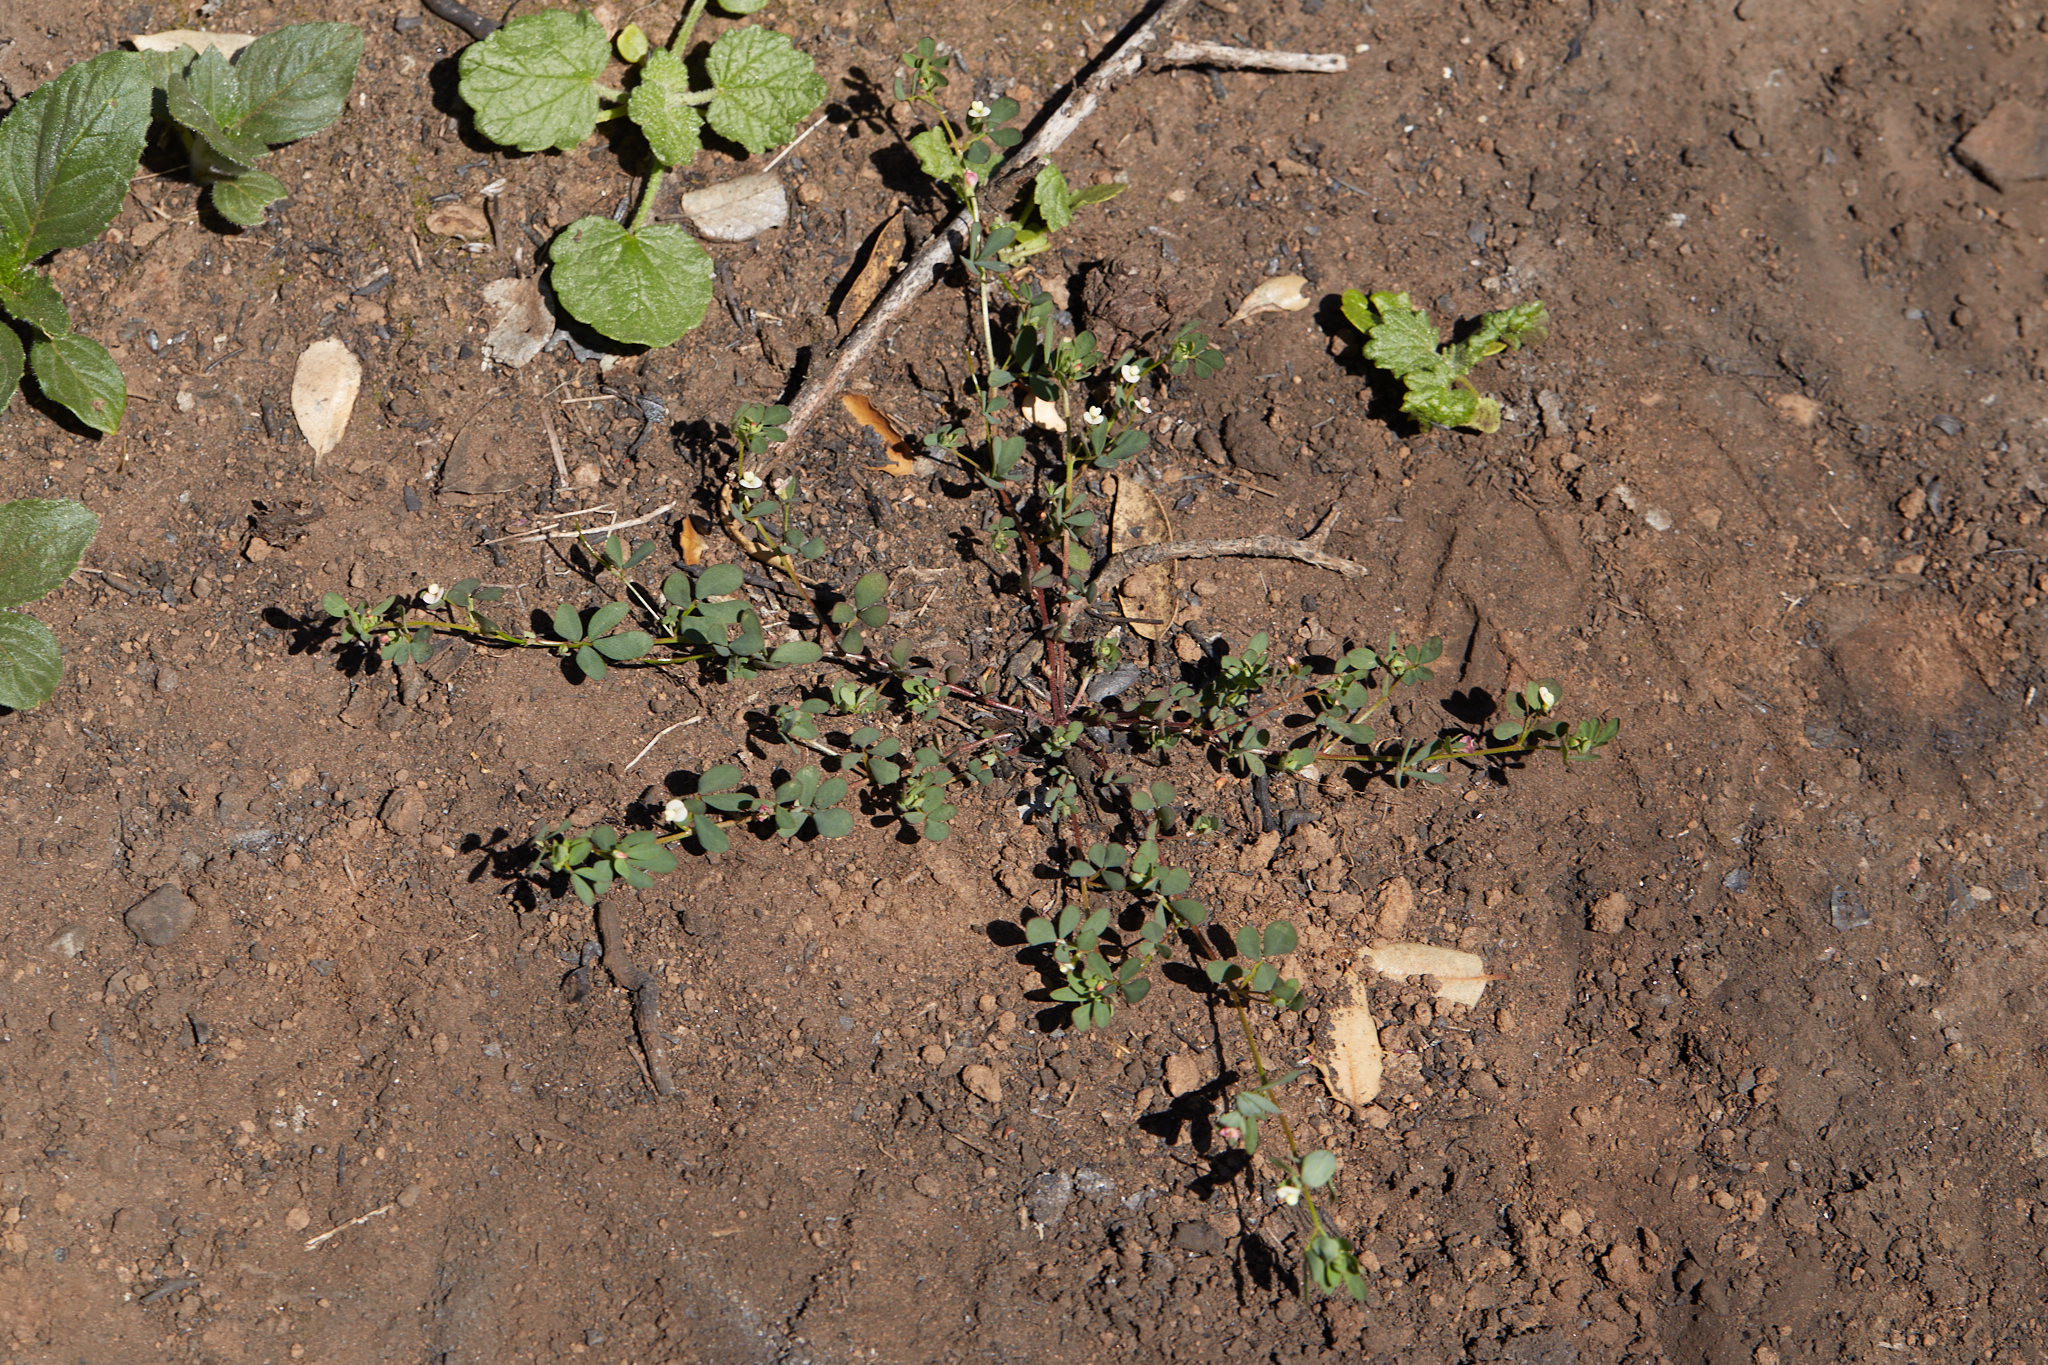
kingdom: Plantae
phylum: Tracheophyta
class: Magnoliopsida
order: Fabales
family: Fabaceae
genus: Acmispon
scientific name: Acmispon parviflorus
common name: Desert deer-vetch
